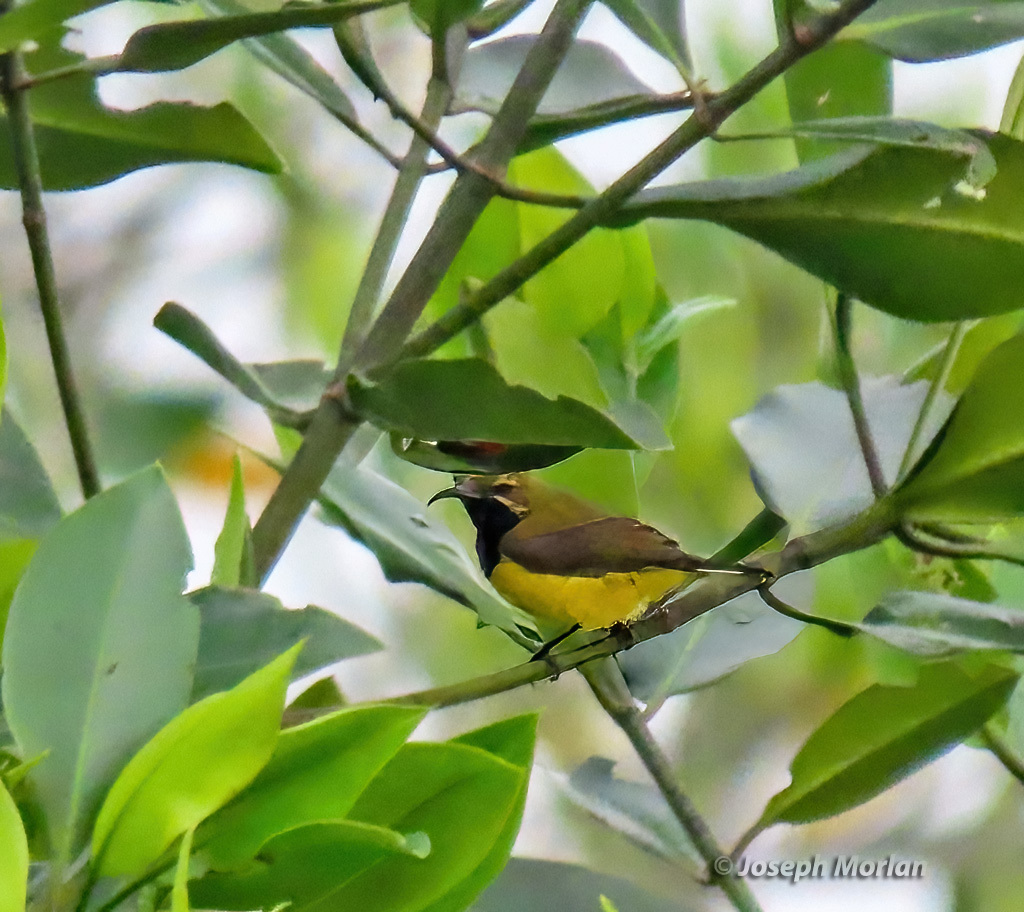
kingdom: Animalia
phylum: Chordata
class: Aves
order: Passeriformes
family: Nectariniidae
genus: Cinnyris
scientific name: Cinnyris
